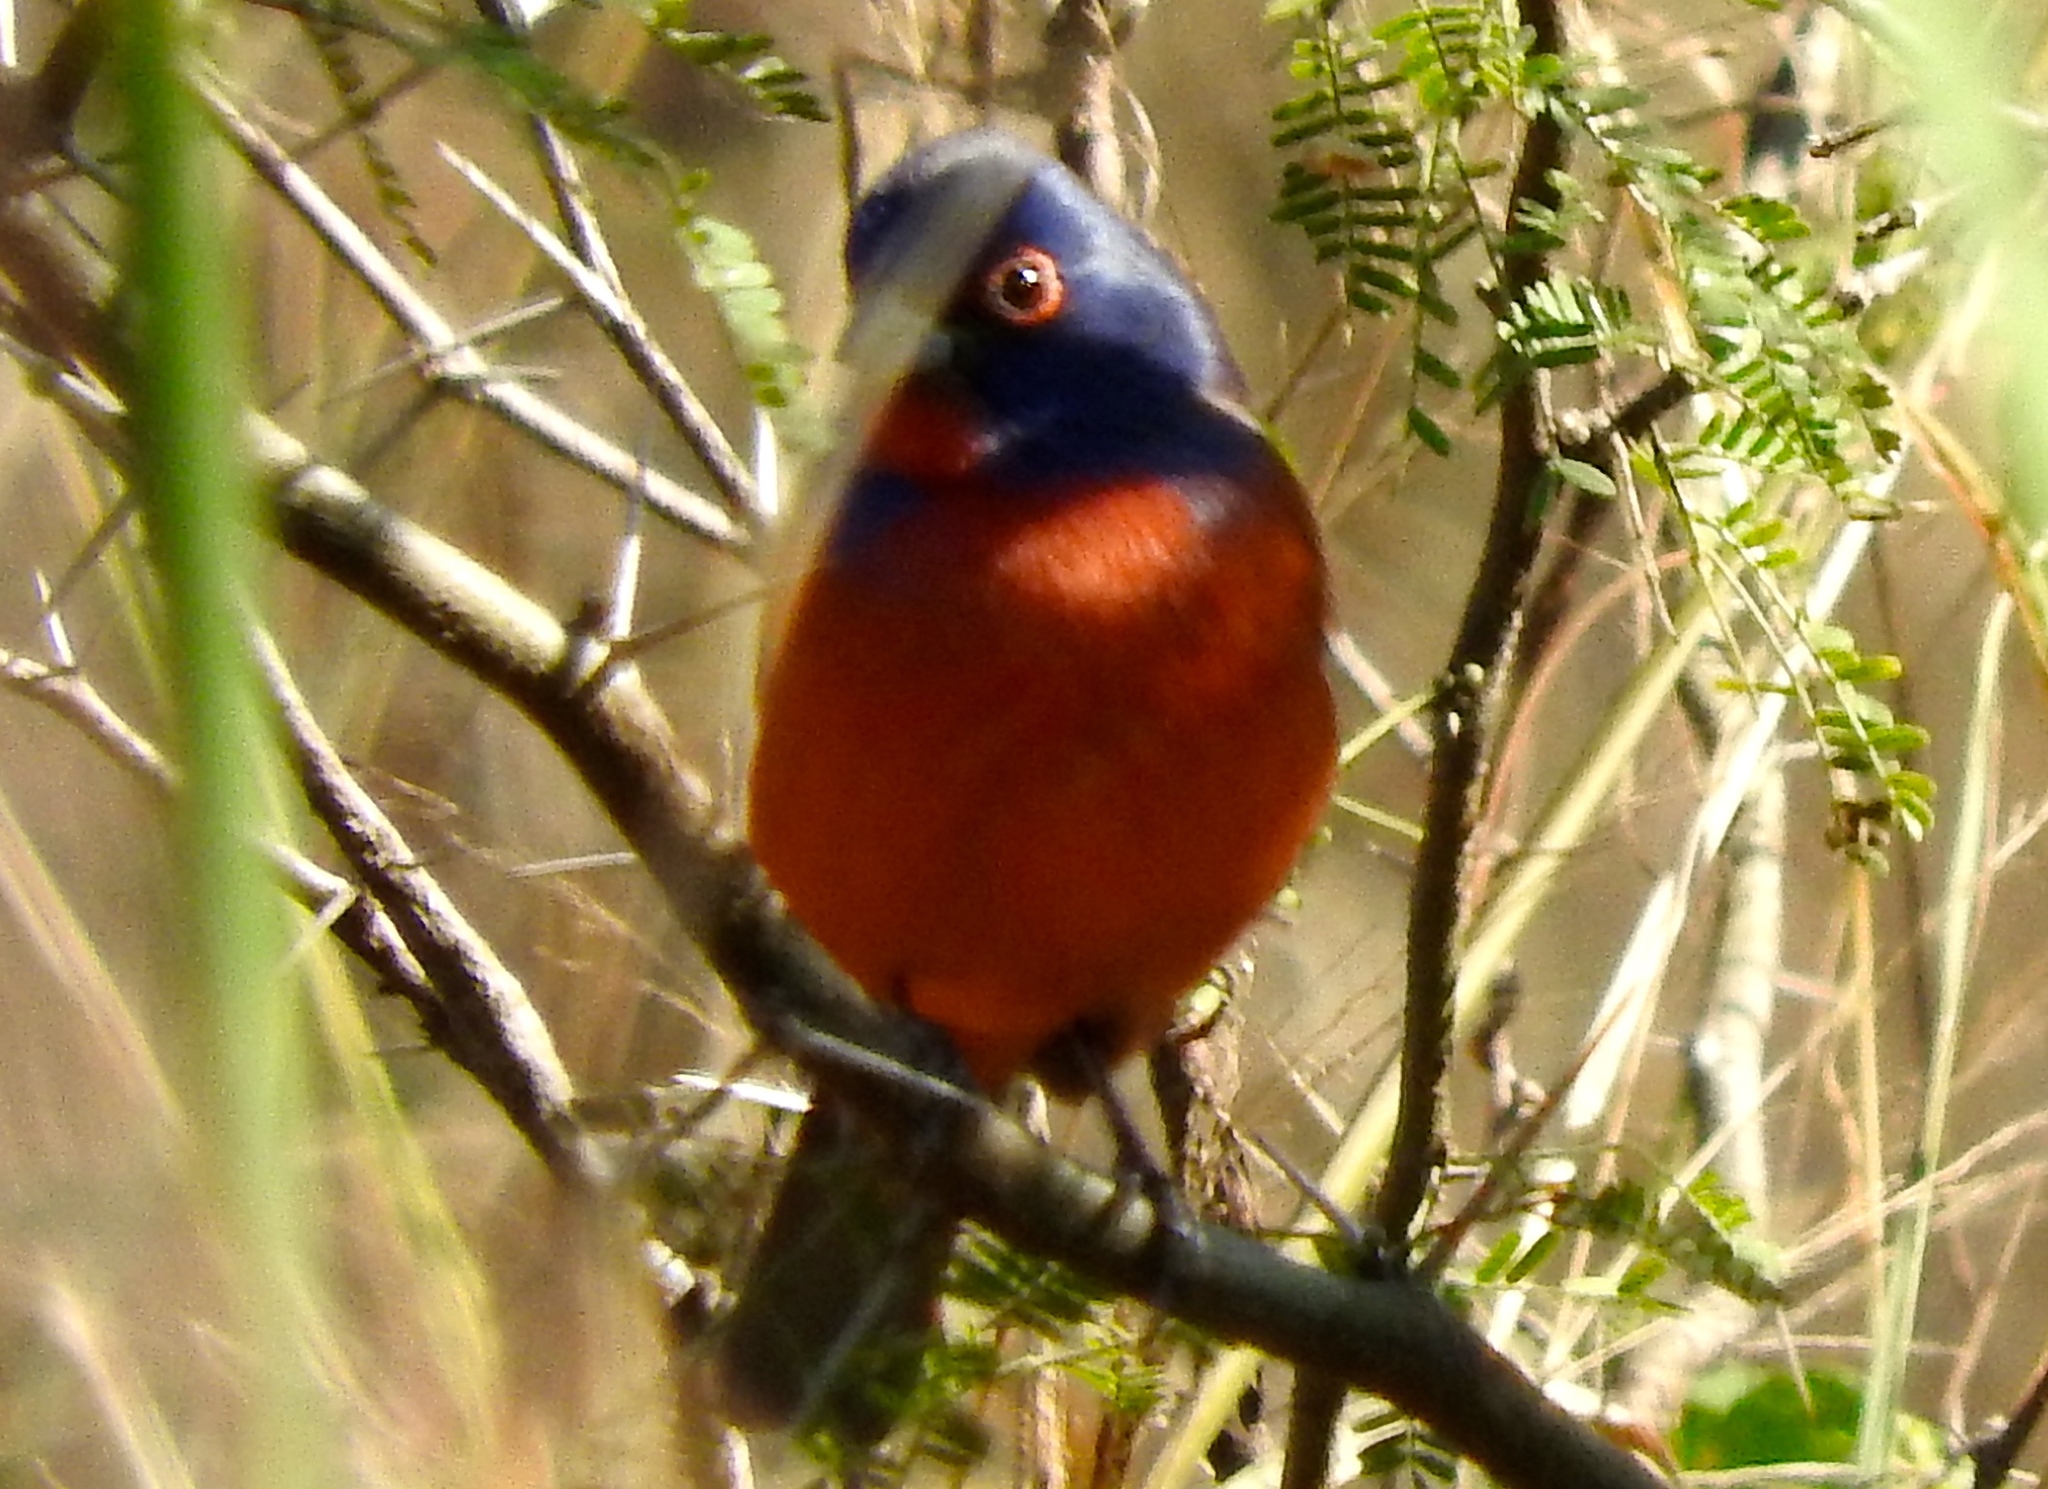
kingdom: Animalia
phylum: Chordata
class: Aves
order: Passeriformes
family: Cardinalidae
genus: Passerina
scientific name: Passerina ciris
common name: Painted bunting
